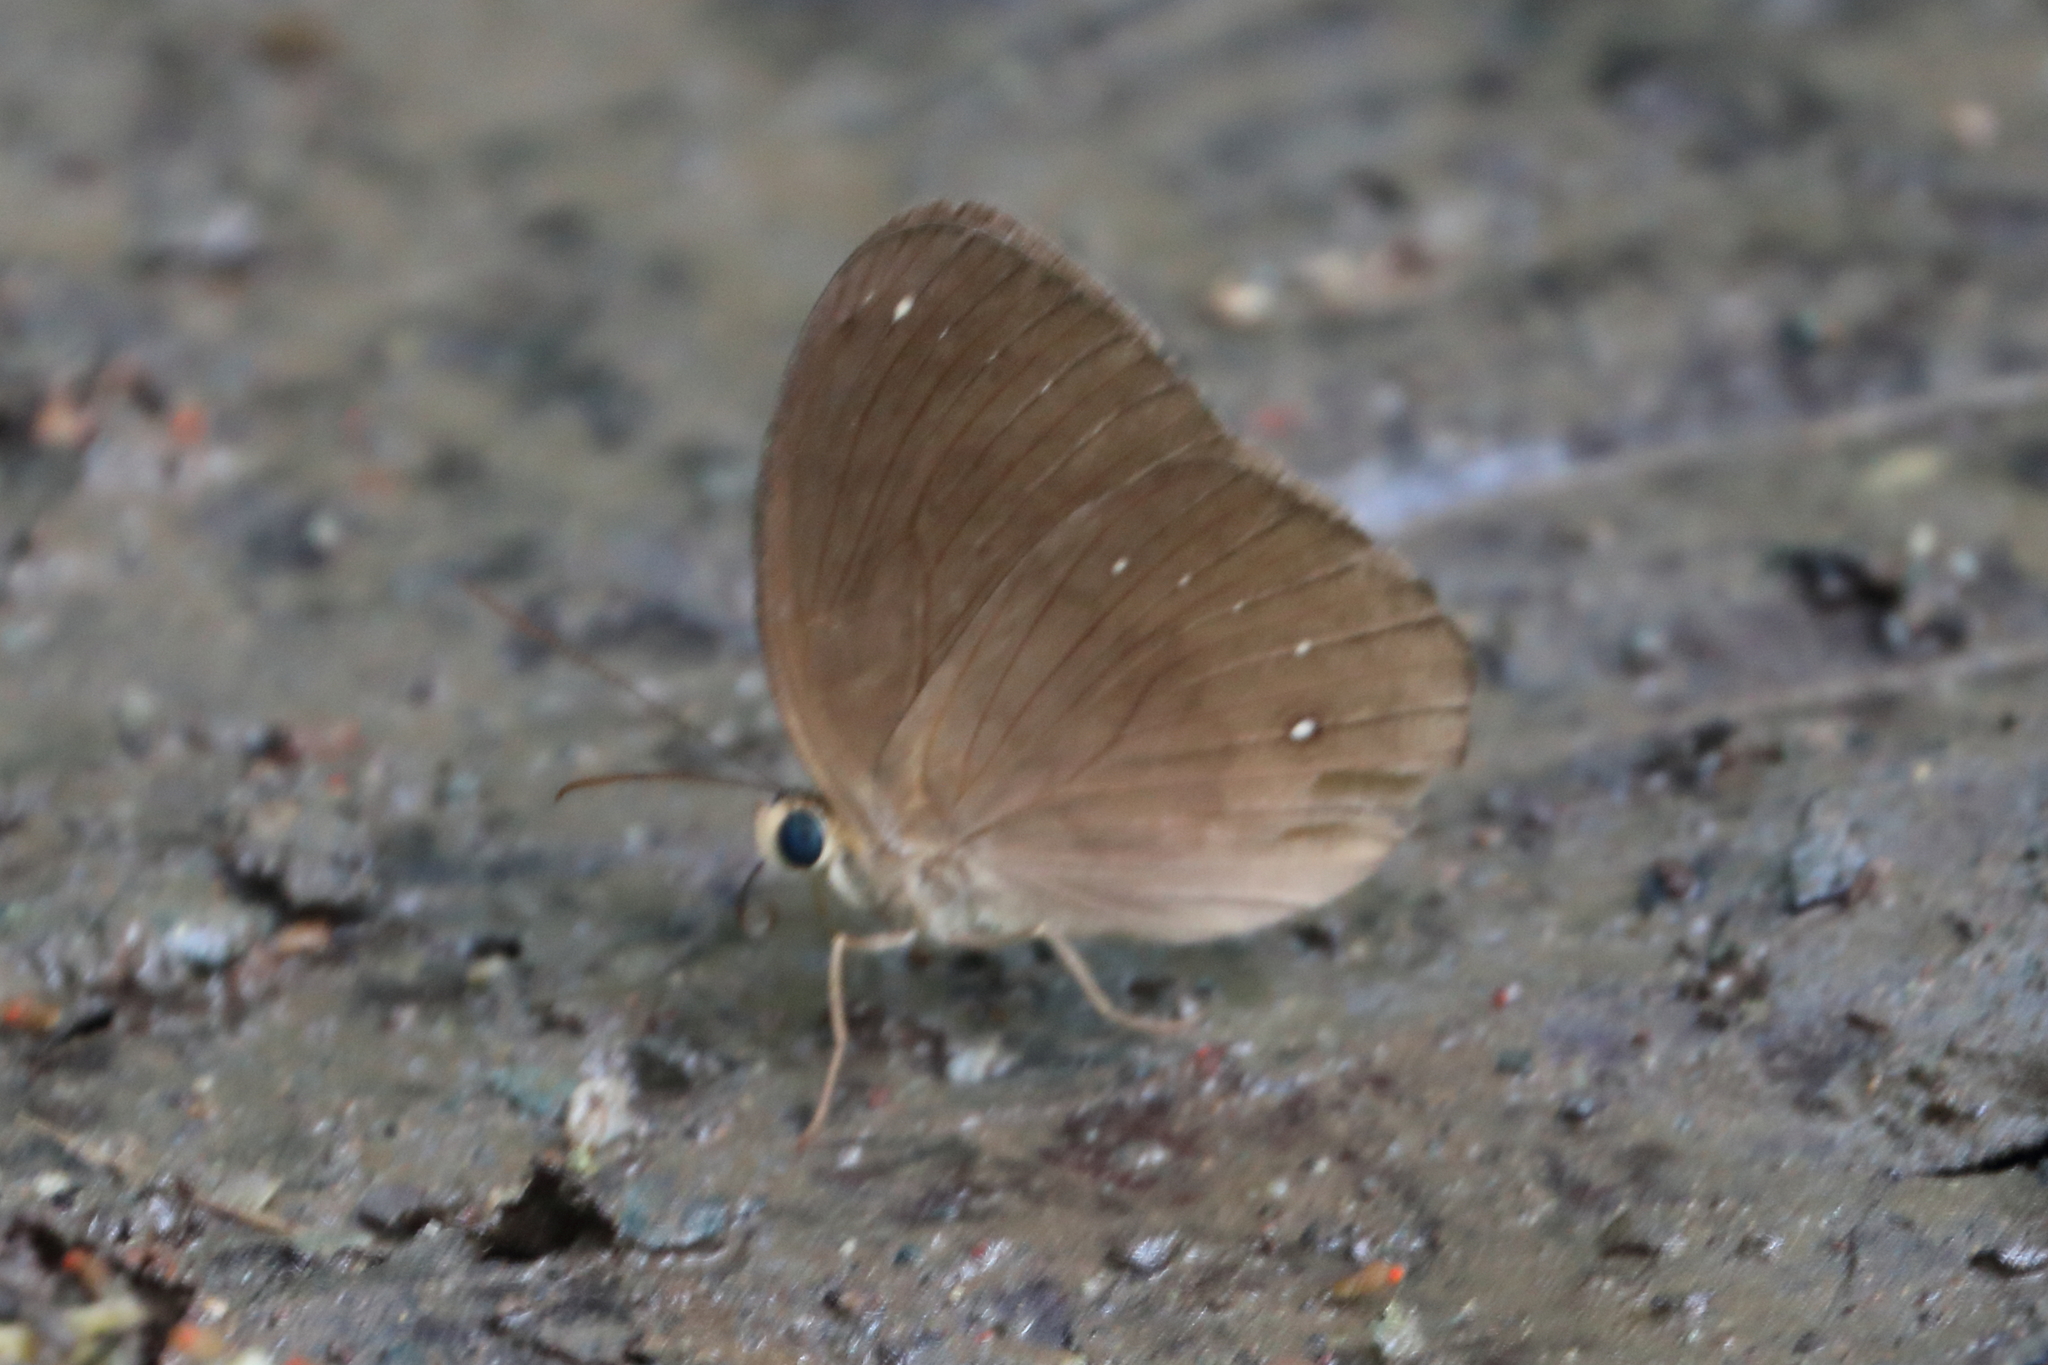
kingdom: Animalia
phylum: Arthropoda
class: Insecta
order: Lepidoptera
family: Nymphalidae
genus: Faunis
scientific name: Faunis stomphax
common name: Banded faun
